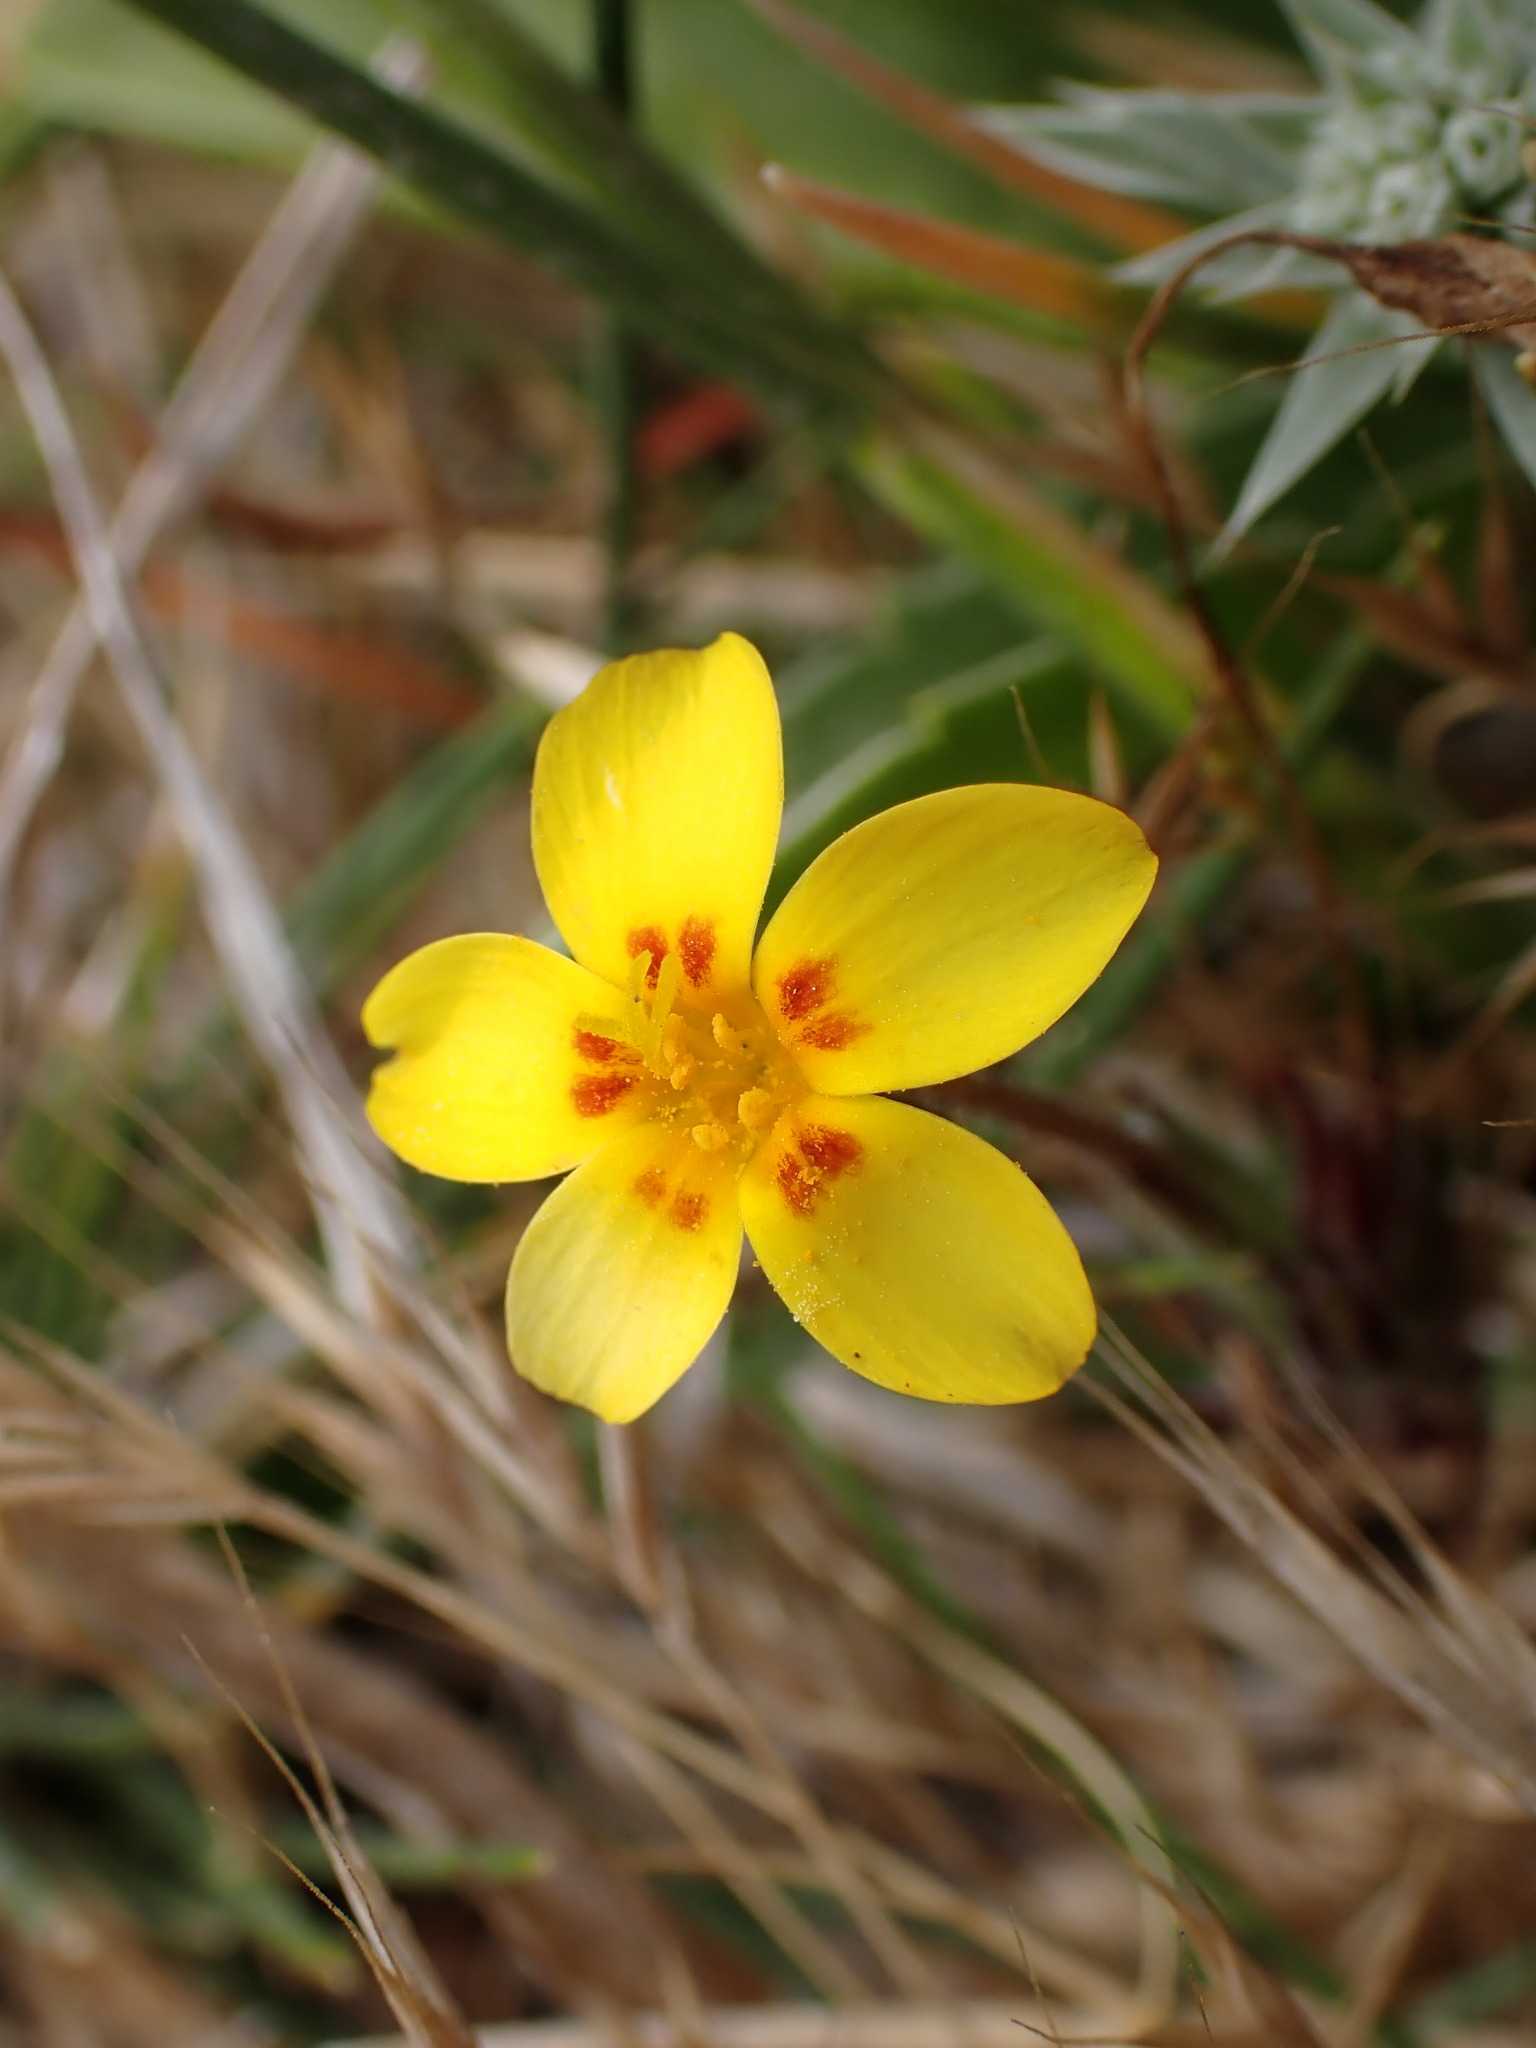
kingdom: Plantae
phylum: Tracheophyta
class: Magnoliopsida
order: Ericales
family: Polemoniaceae
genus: Leptosiphon
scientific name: Leptosiphon croceus
